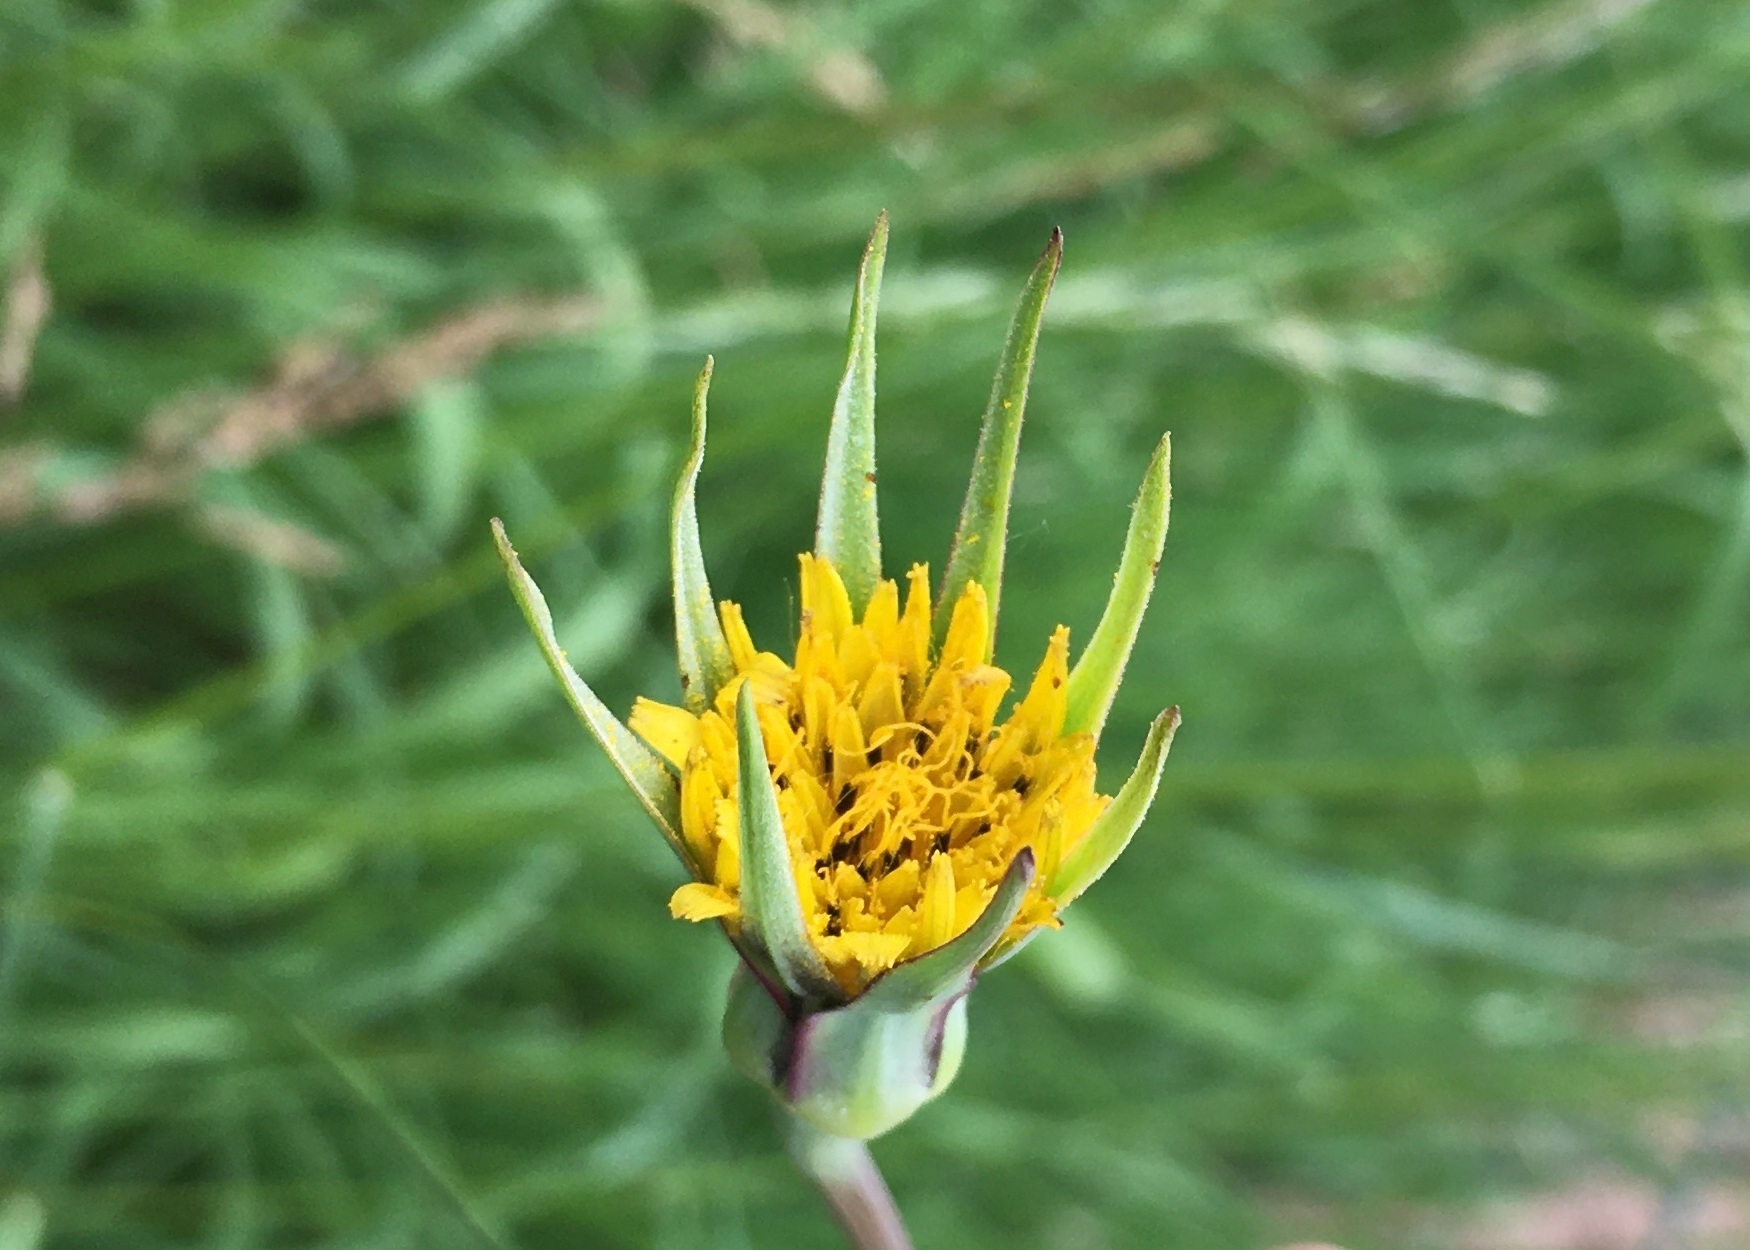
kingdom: Plantae
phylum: Tracheophyta
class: Magnoliopsida
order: Asterales
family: Asteraceae
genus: Tragopogon
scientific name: Tragopogon pratensis
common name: Goat's-beard
